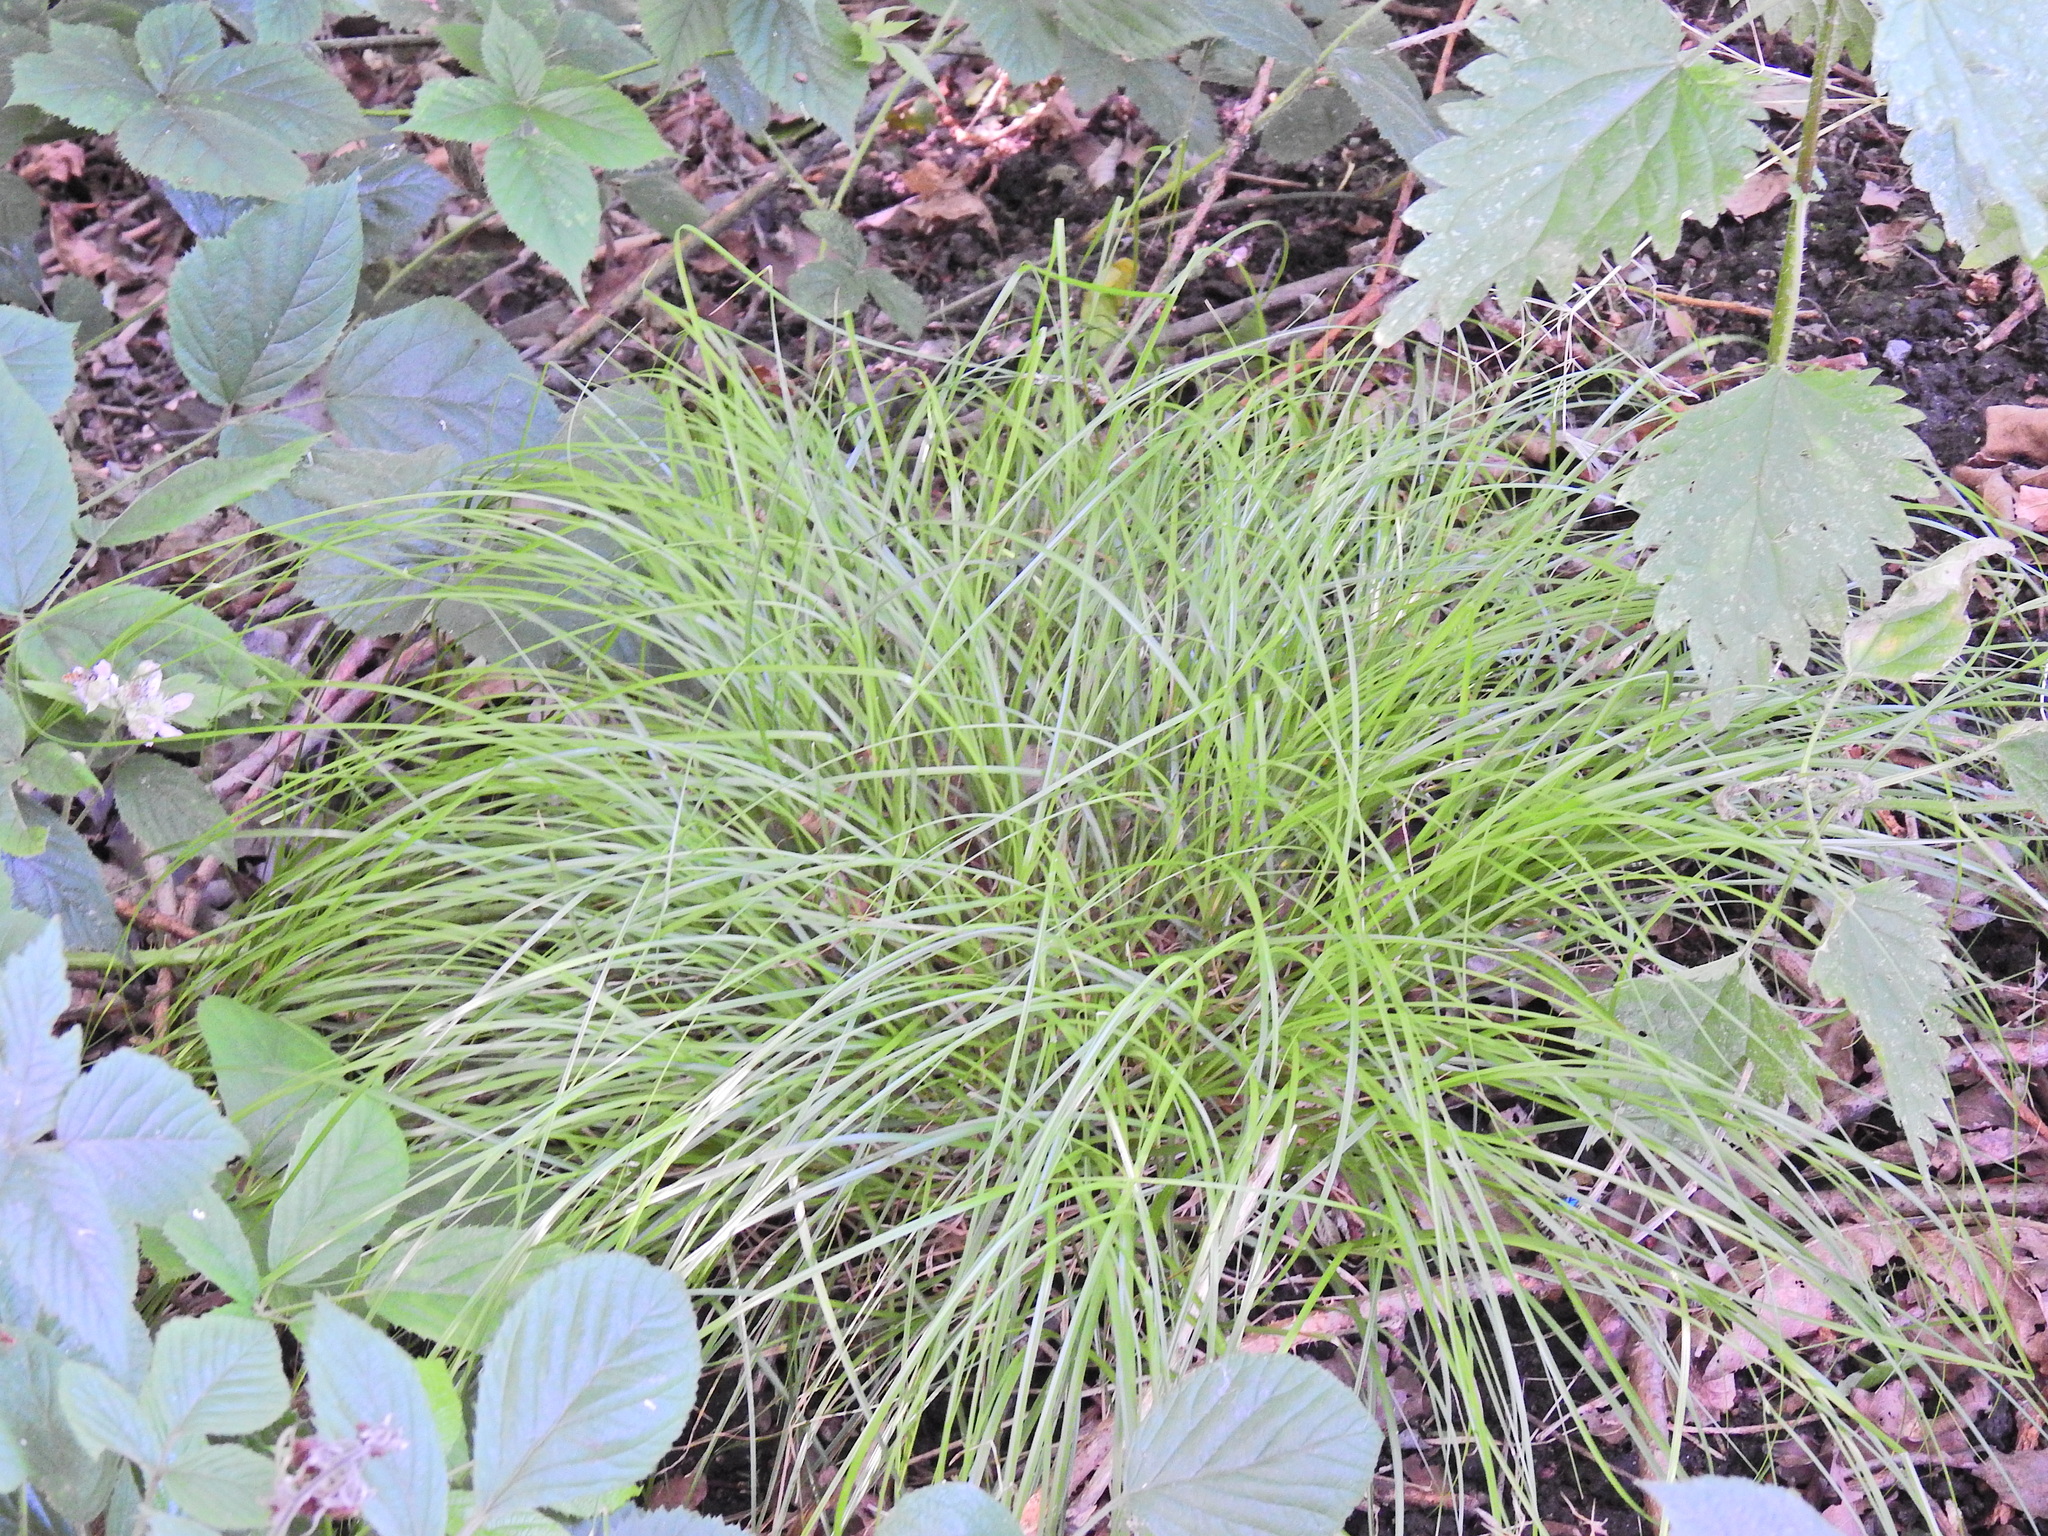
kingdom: Plantae
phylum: Tracheophyta
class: Liliopsida
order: Poales
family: Cyperaceae
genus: Carex
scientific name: Carex remota
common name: Remote sedge
